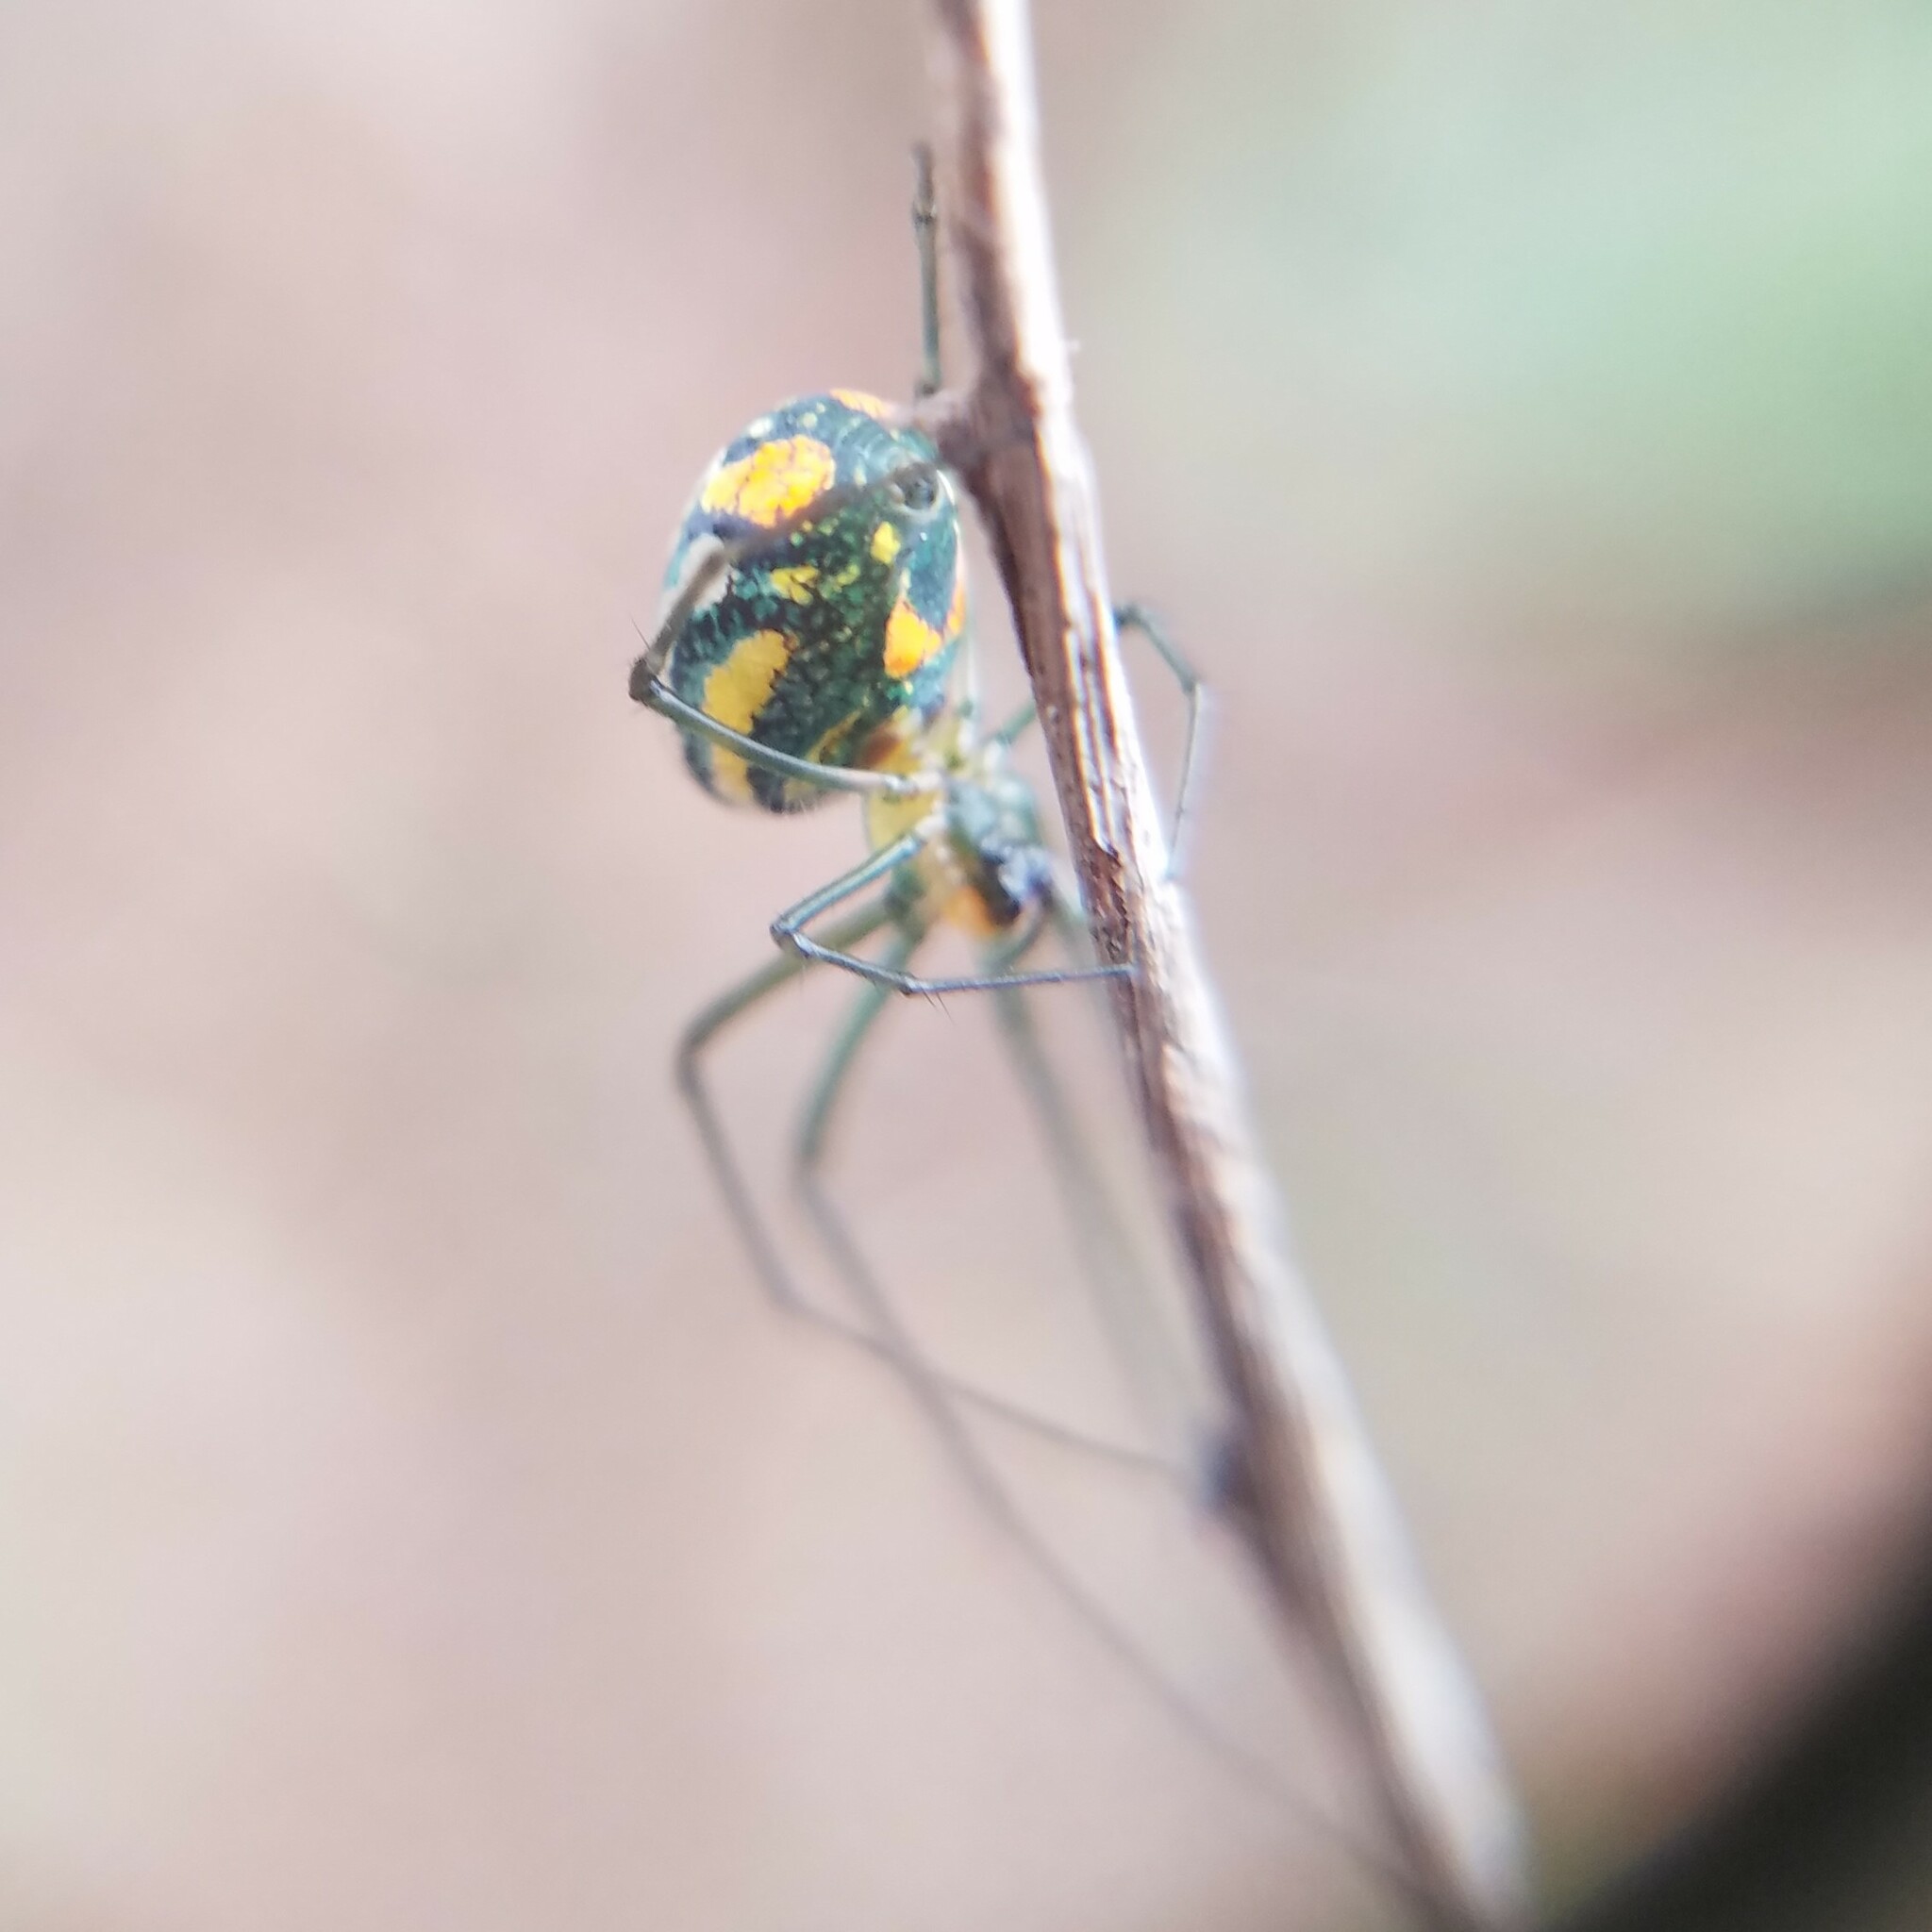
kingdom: Animalia
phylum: Arthropoda
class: Arachnida
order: Araneae
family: Tetragnathidae
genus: Leucauge
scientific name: Leucauge argyrobapta
